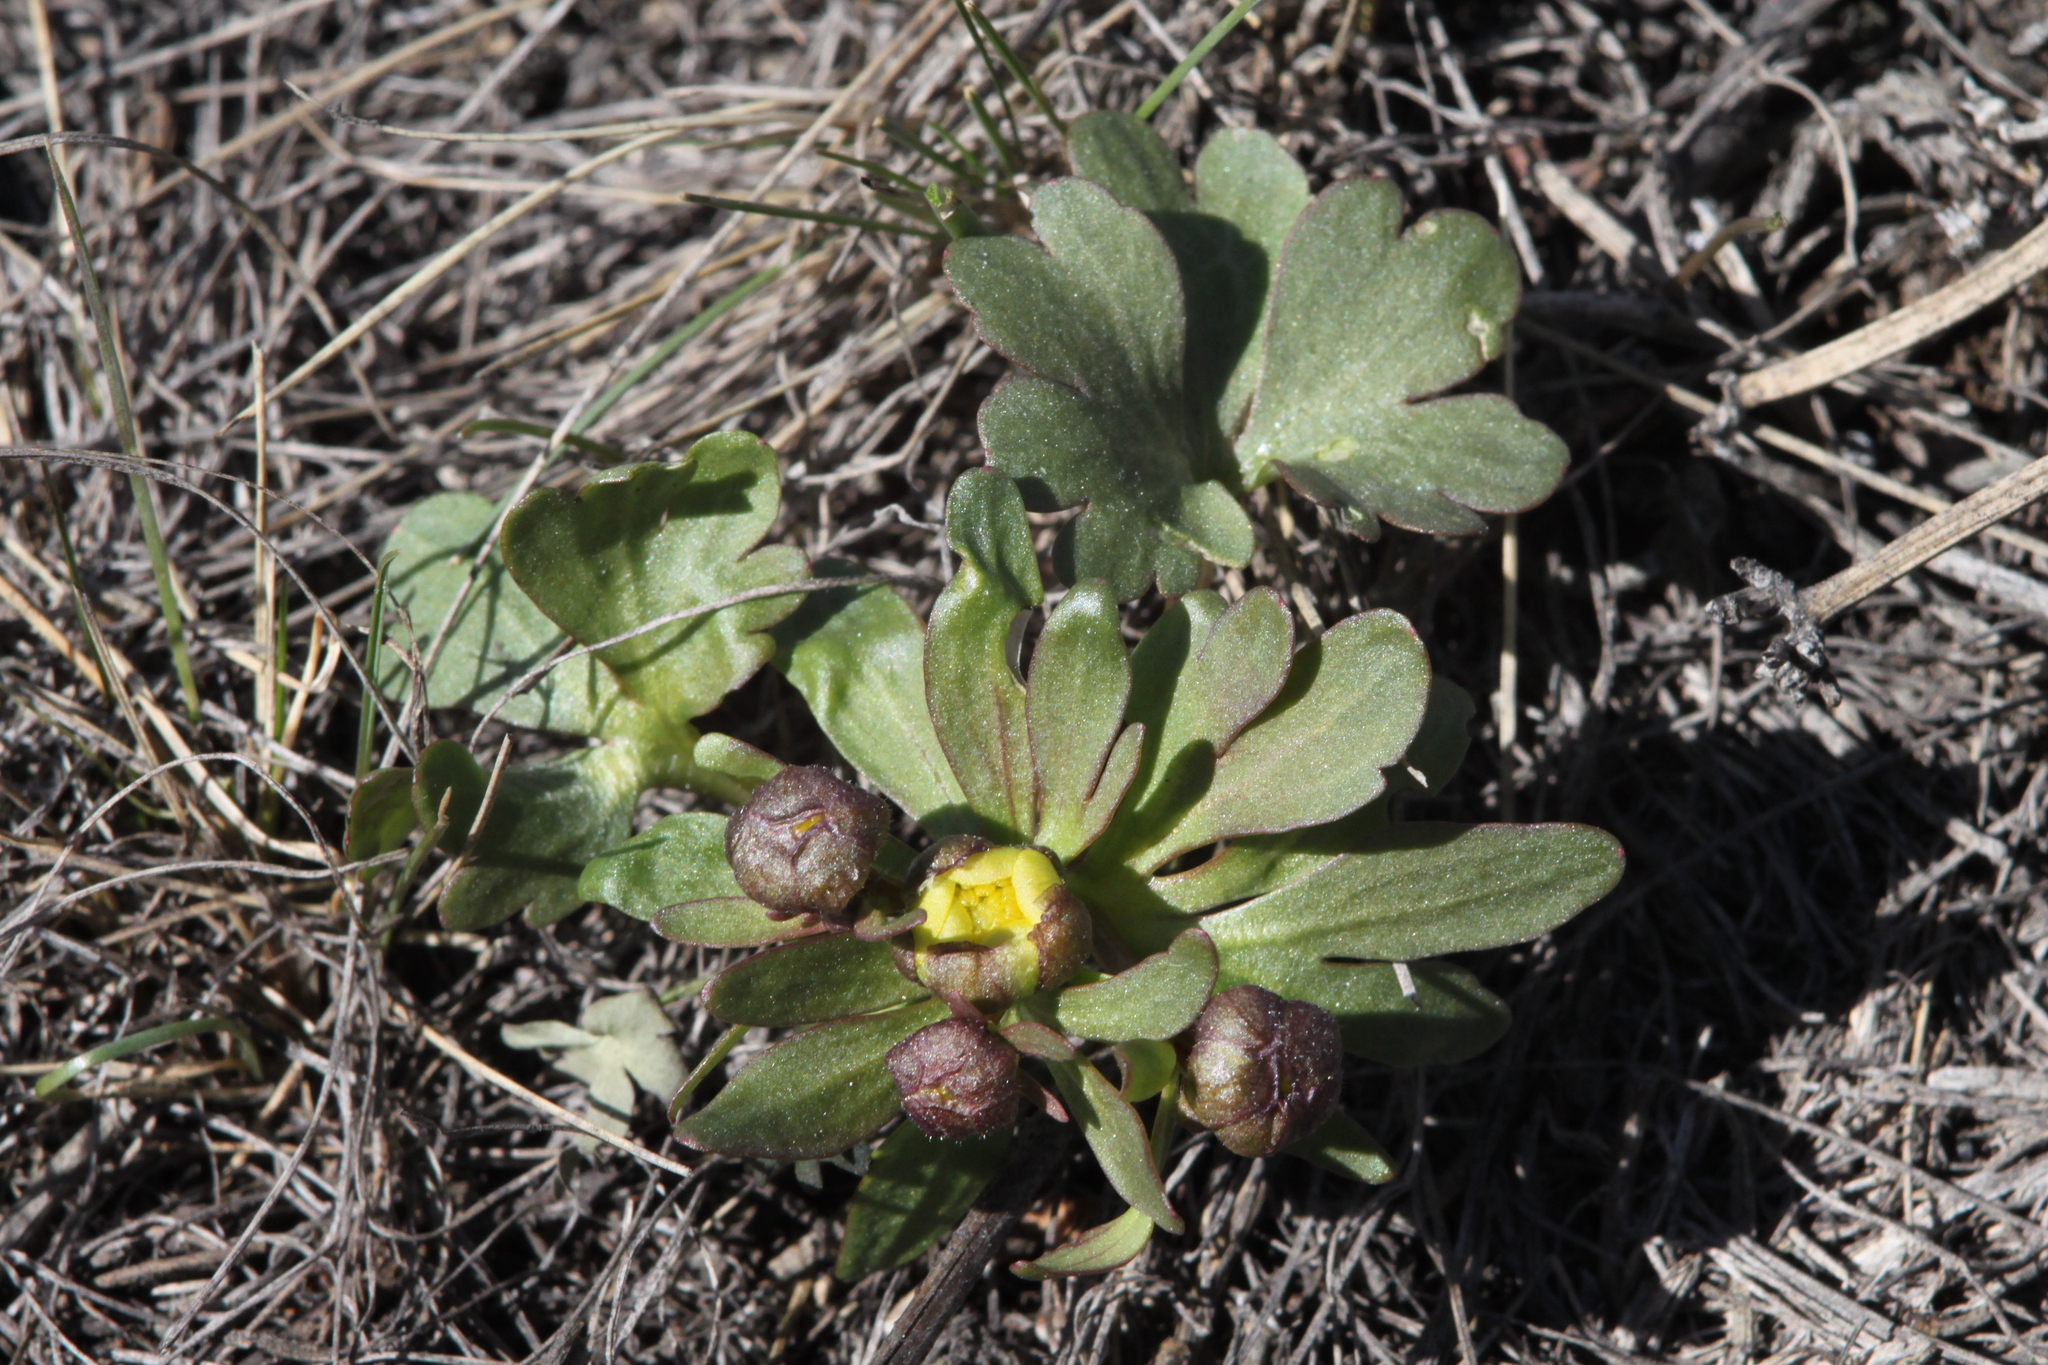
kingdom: Plantae
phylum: Tracheophyta
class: Magnoliopsida
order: Ranunculales
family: Ranunculaceae
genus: Ranunculus
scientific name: Ranunculus polyrhizos
